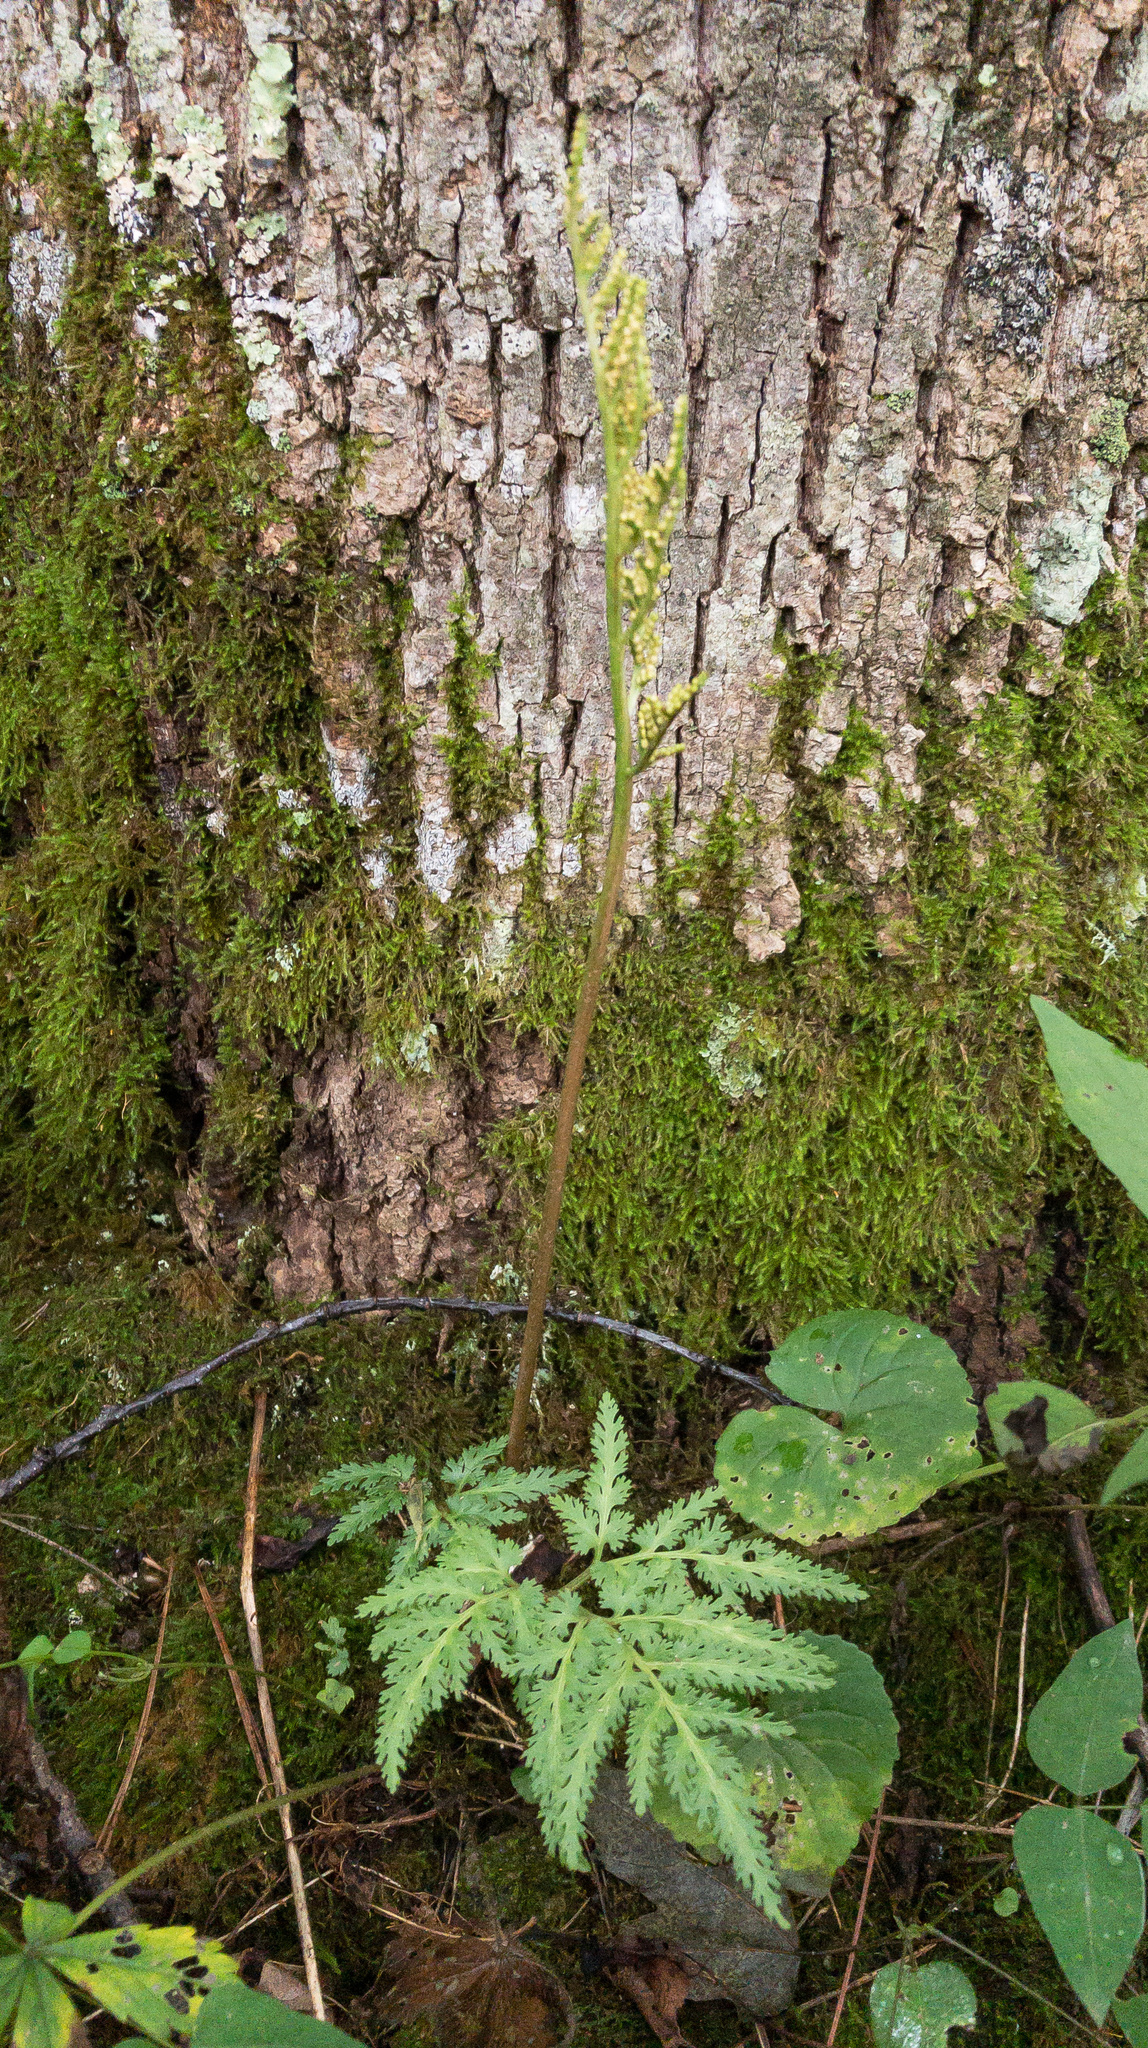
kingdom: Plantae
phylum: Tracheophyta
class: Polypodiopsida
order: Ophioglossales
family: Ophioglossaceae
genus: Sceptridium
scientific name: Sceptridium dissectum
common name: Cut-leaved grapefern
